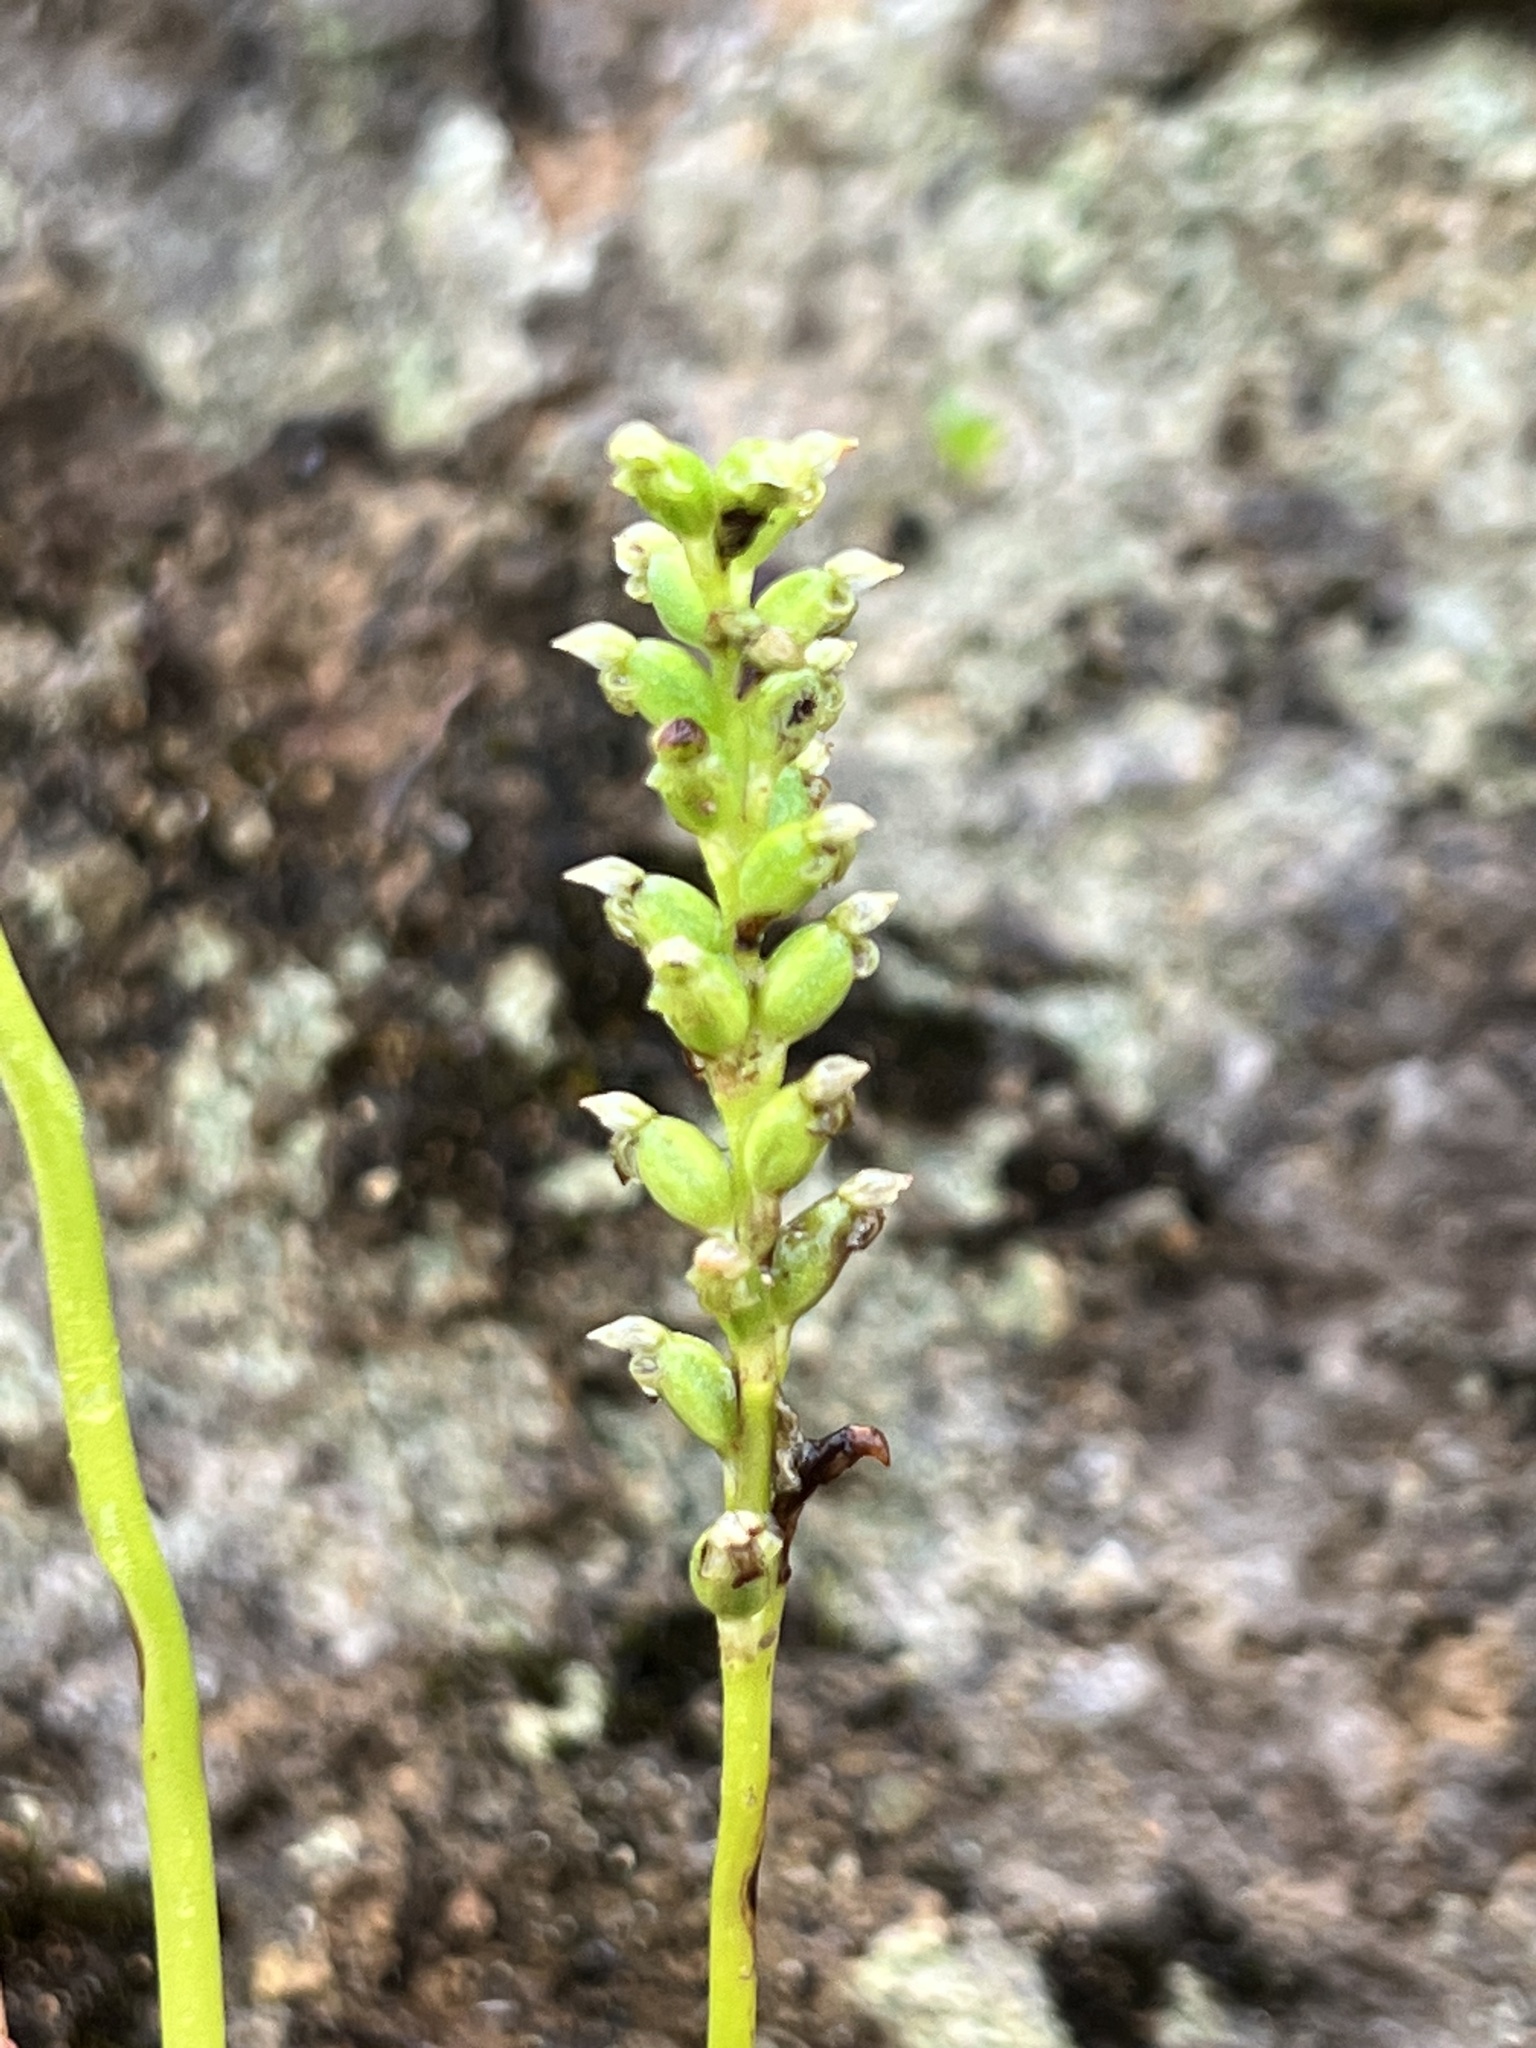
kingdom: Plantae
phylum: Tracheophyta
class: Liliopsida
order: Asparagales
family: Orchidaceae
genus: Microtis
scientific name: Microtis unifolia
